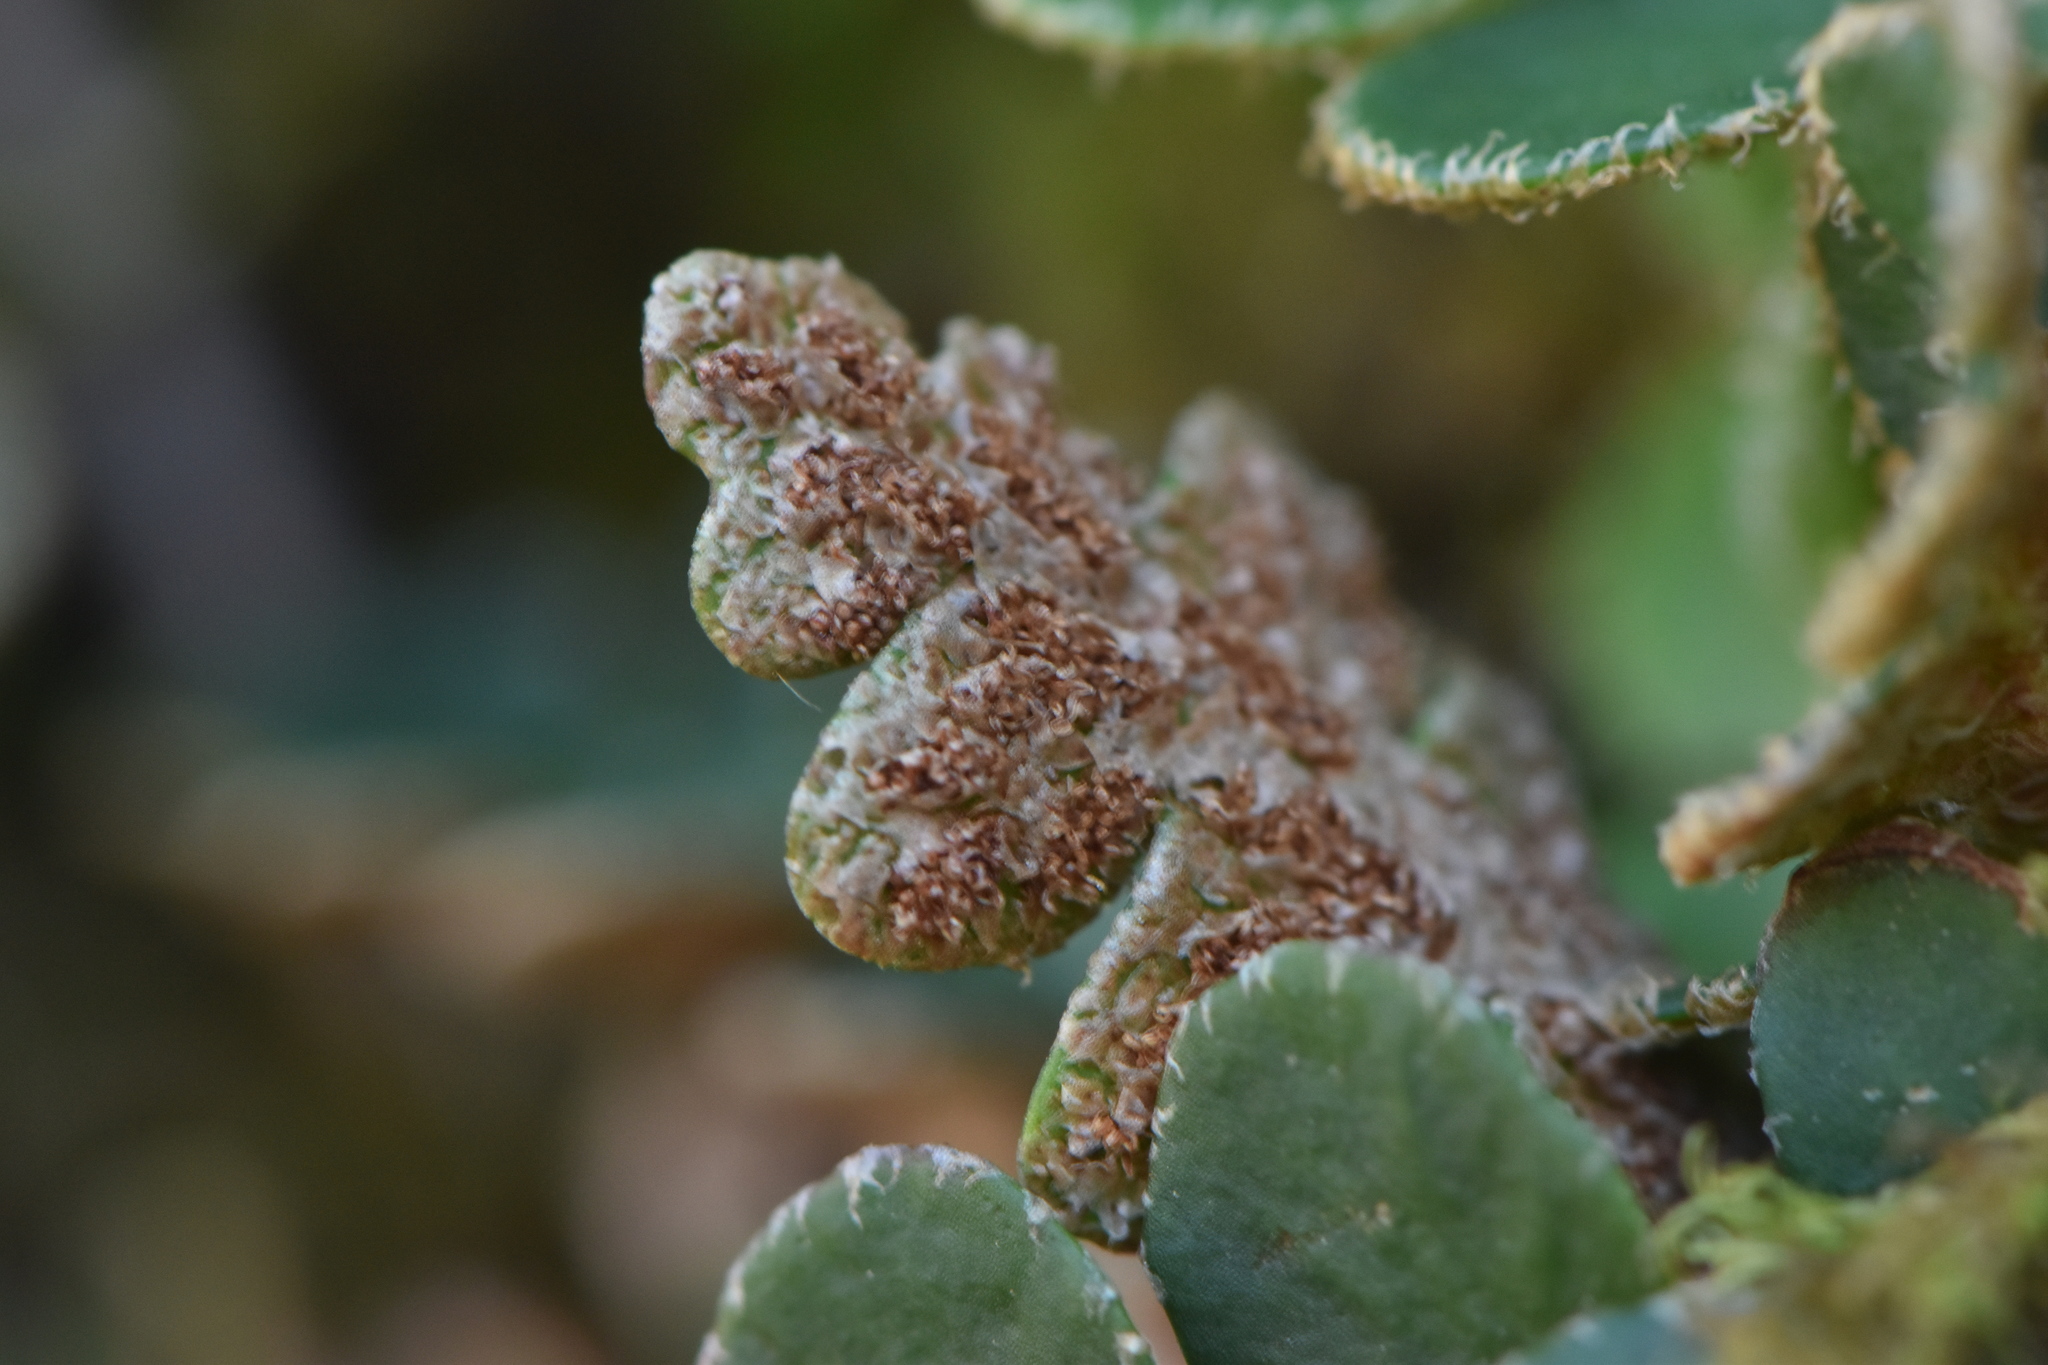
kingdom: Plantae
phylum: Tracheophyta
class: Polypodiopsida
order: Polypodiales
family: Aspleniaceae
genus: Asplenium
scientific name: Asplenium ceterach
